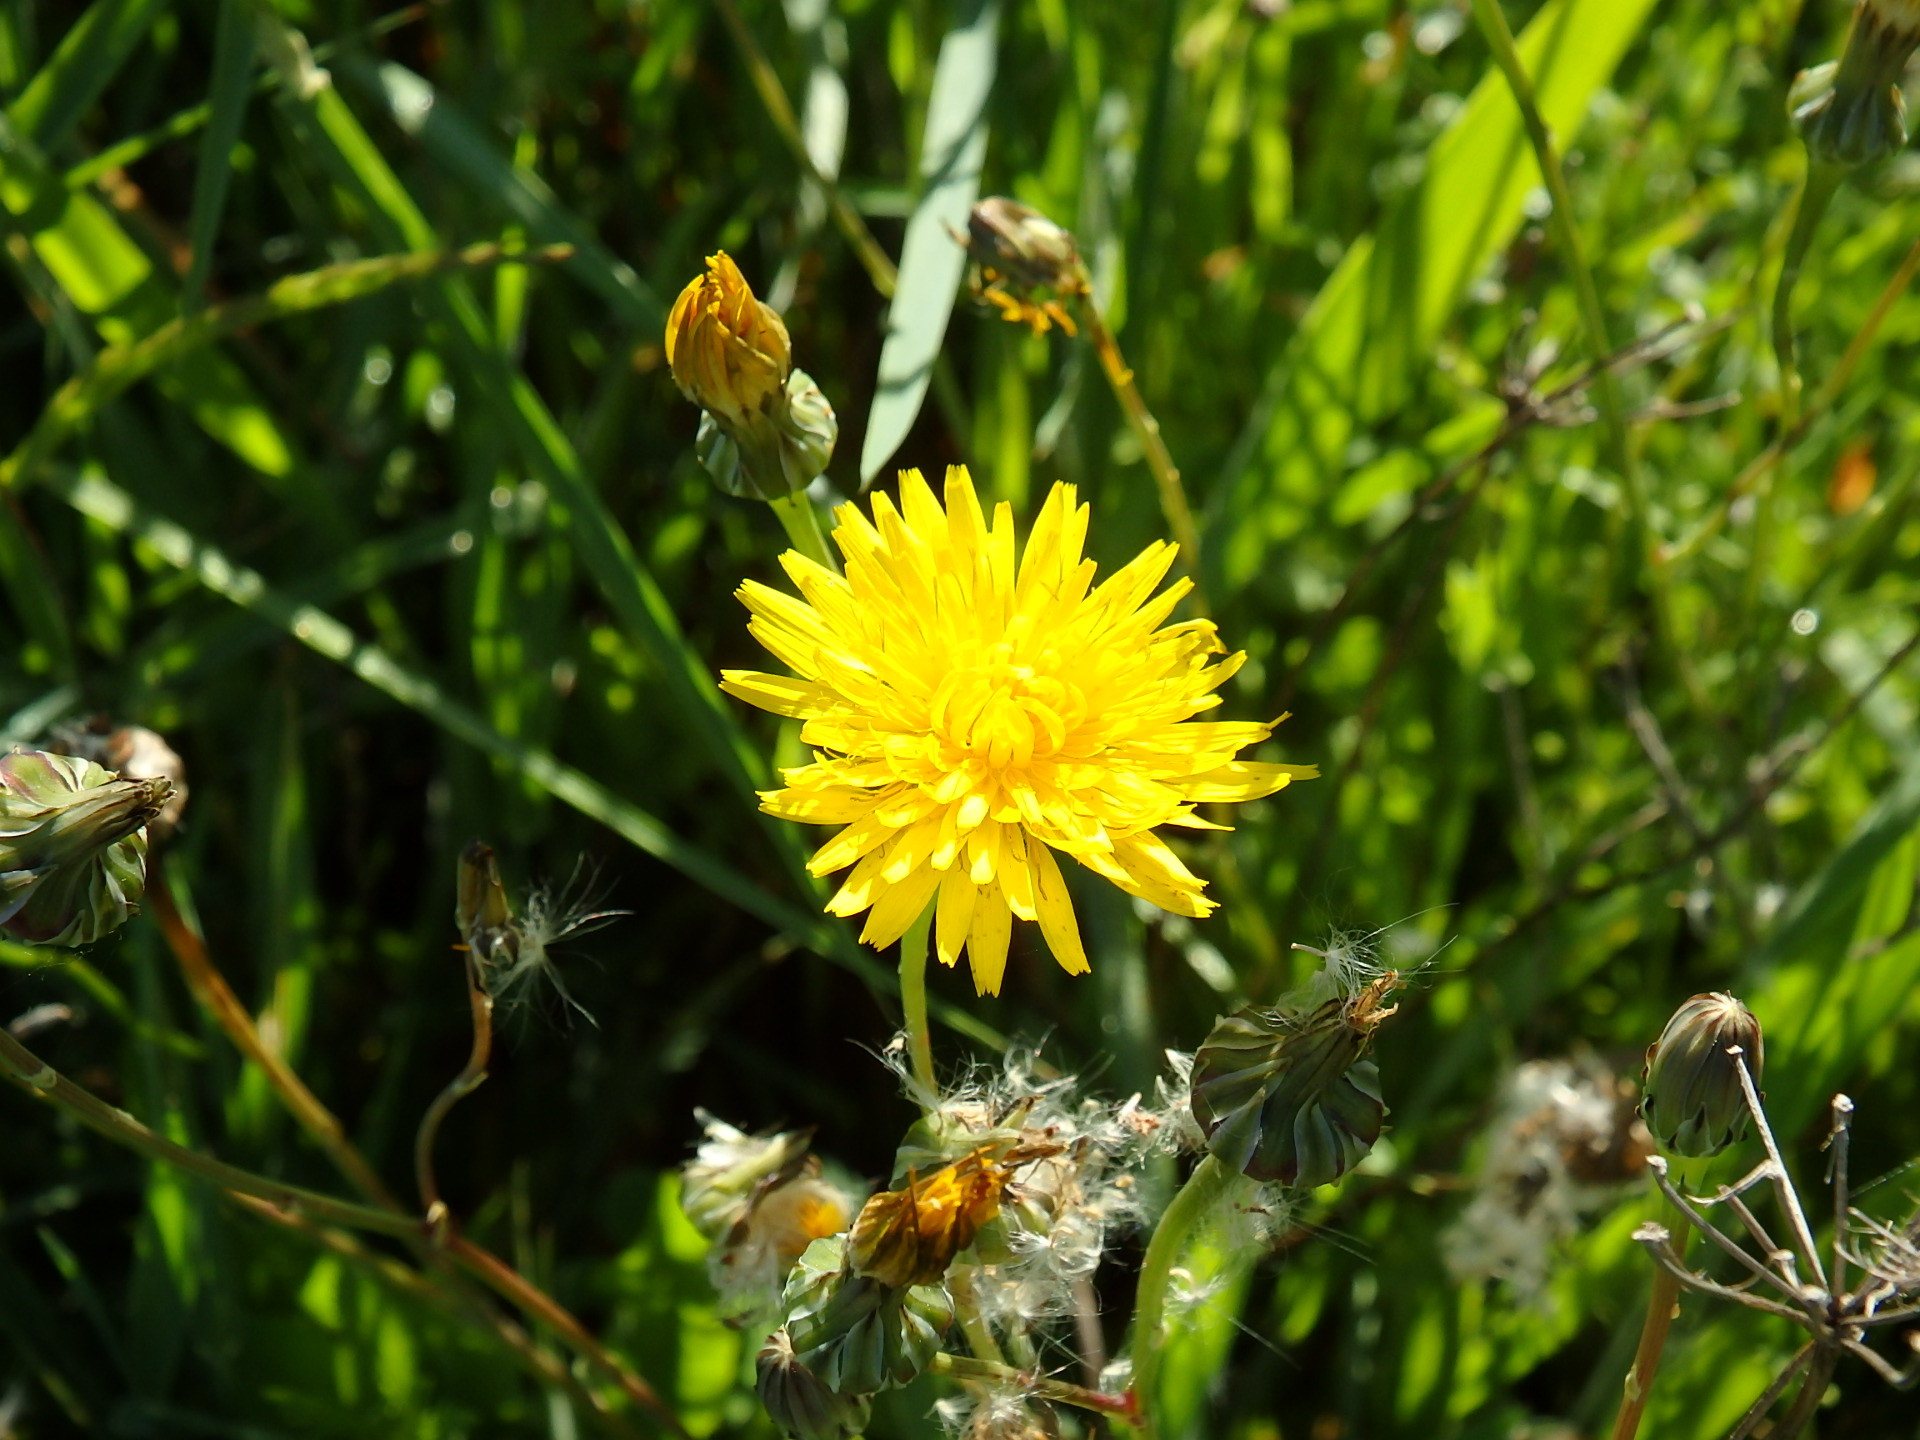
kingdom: Plantae
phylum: Tracheophyta
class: Magnoliopsida
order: Asterales
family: Asteraceae
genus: Reichardia
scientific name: Reichardia picroides
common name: Common brighteyes
